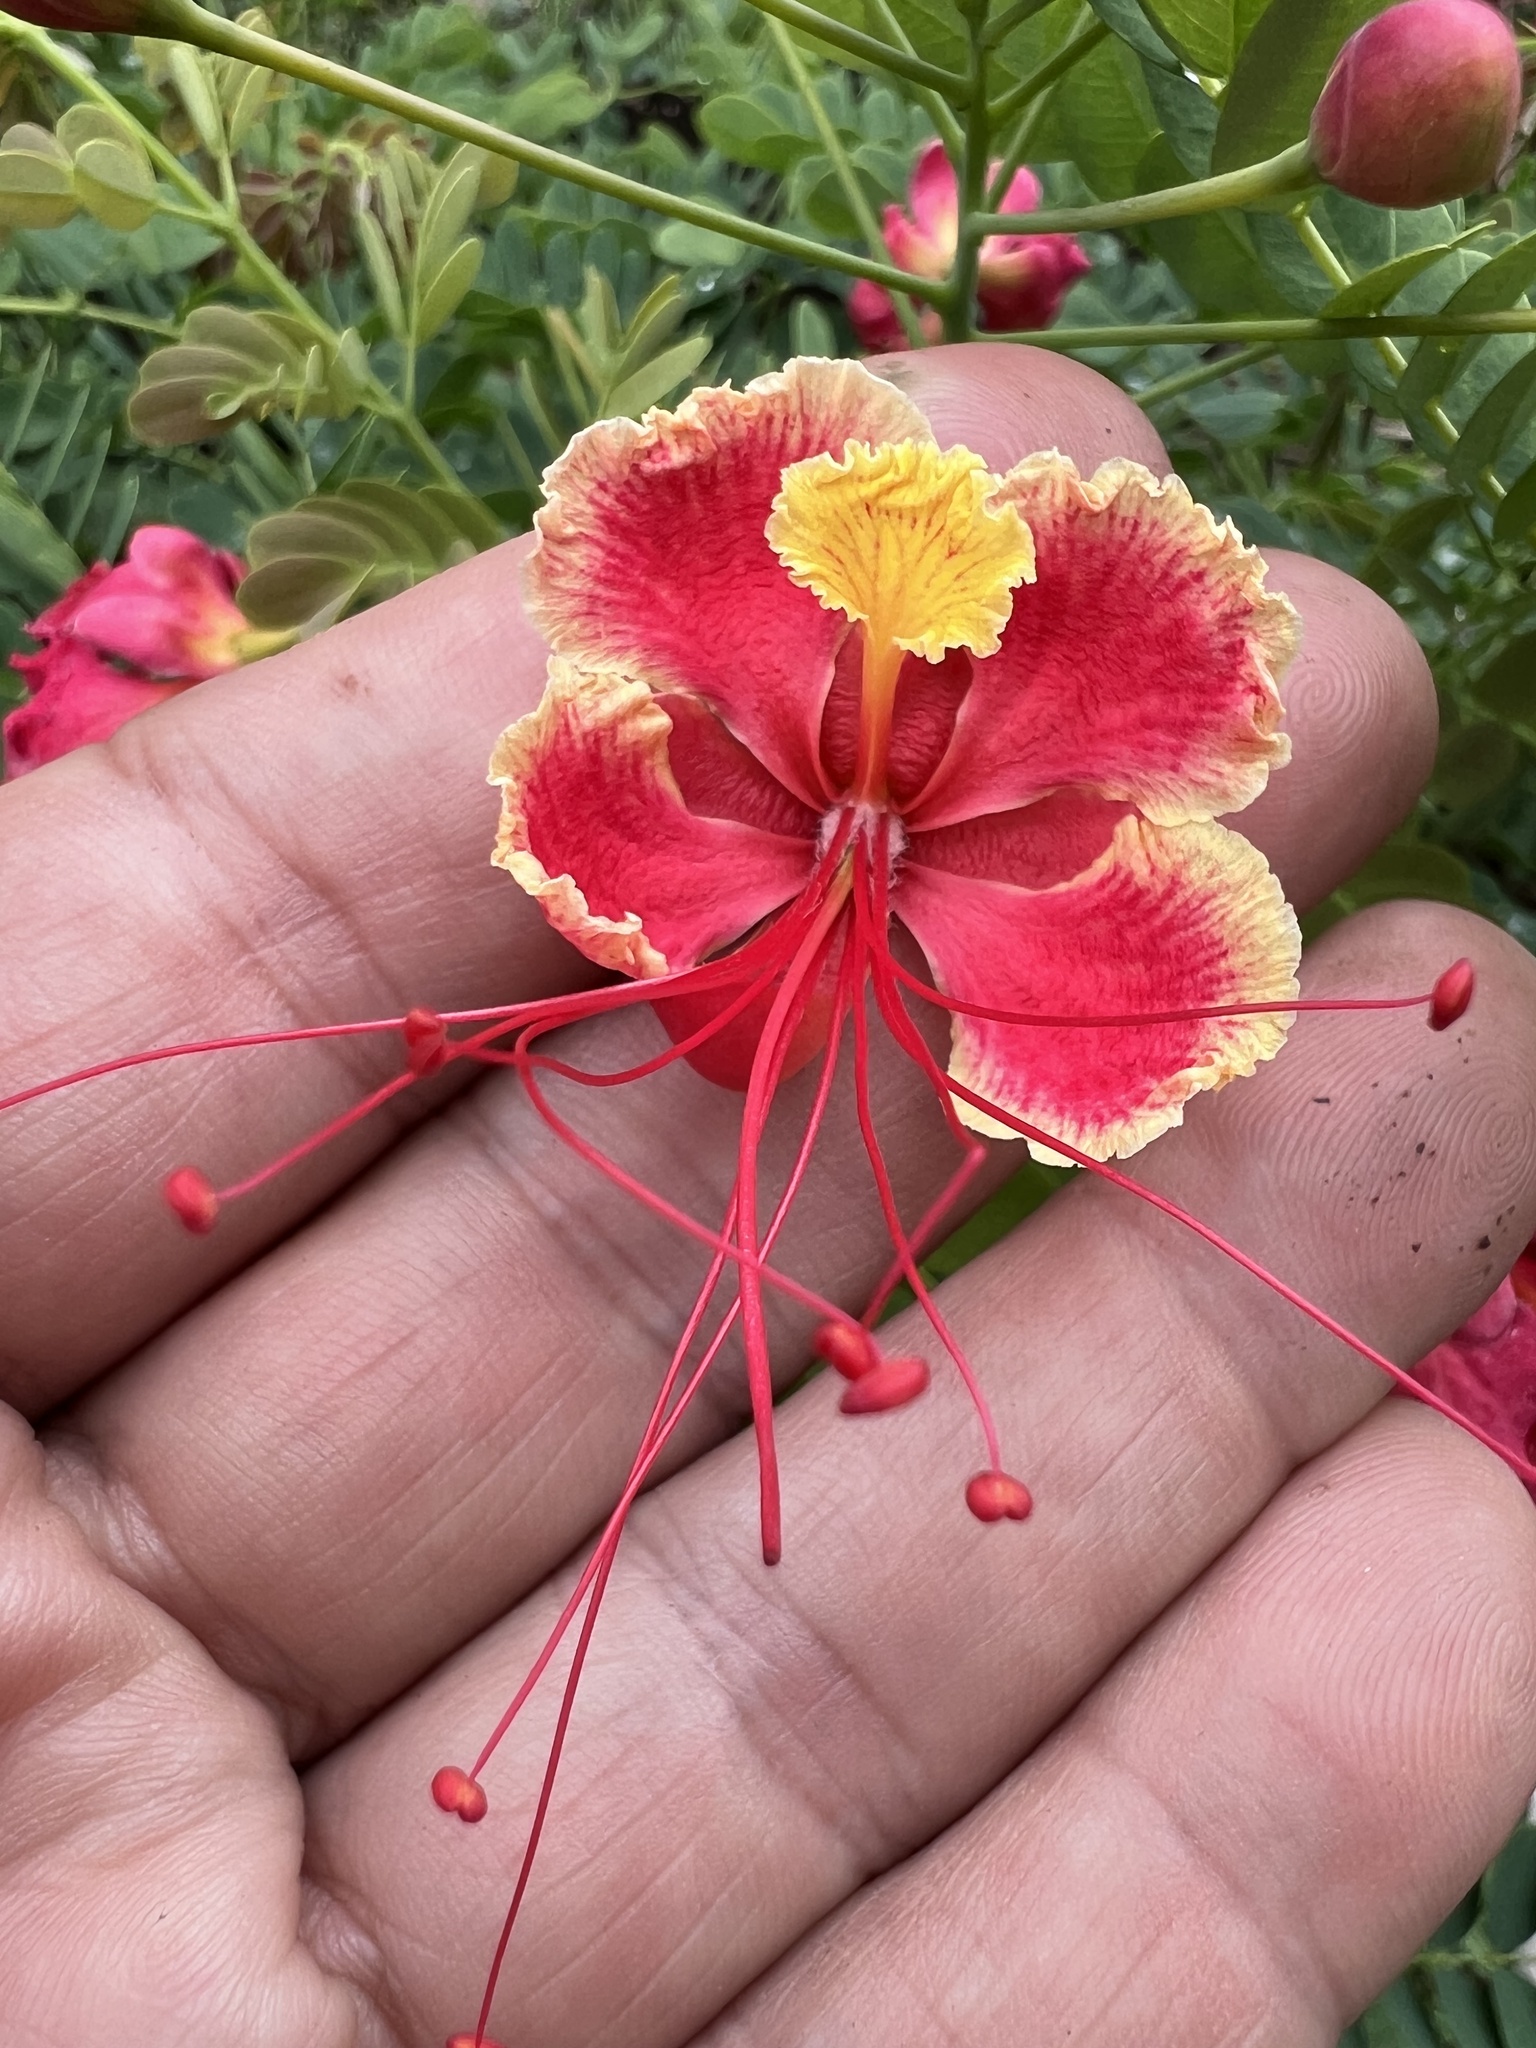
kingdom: Plantae
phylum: Tracheophyta
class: Magnoliopsida
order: Fabales
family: Fabaceae
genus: Caesalpinia
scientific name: Caesalpinia pulcherrima
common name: Pride-of-barbados
